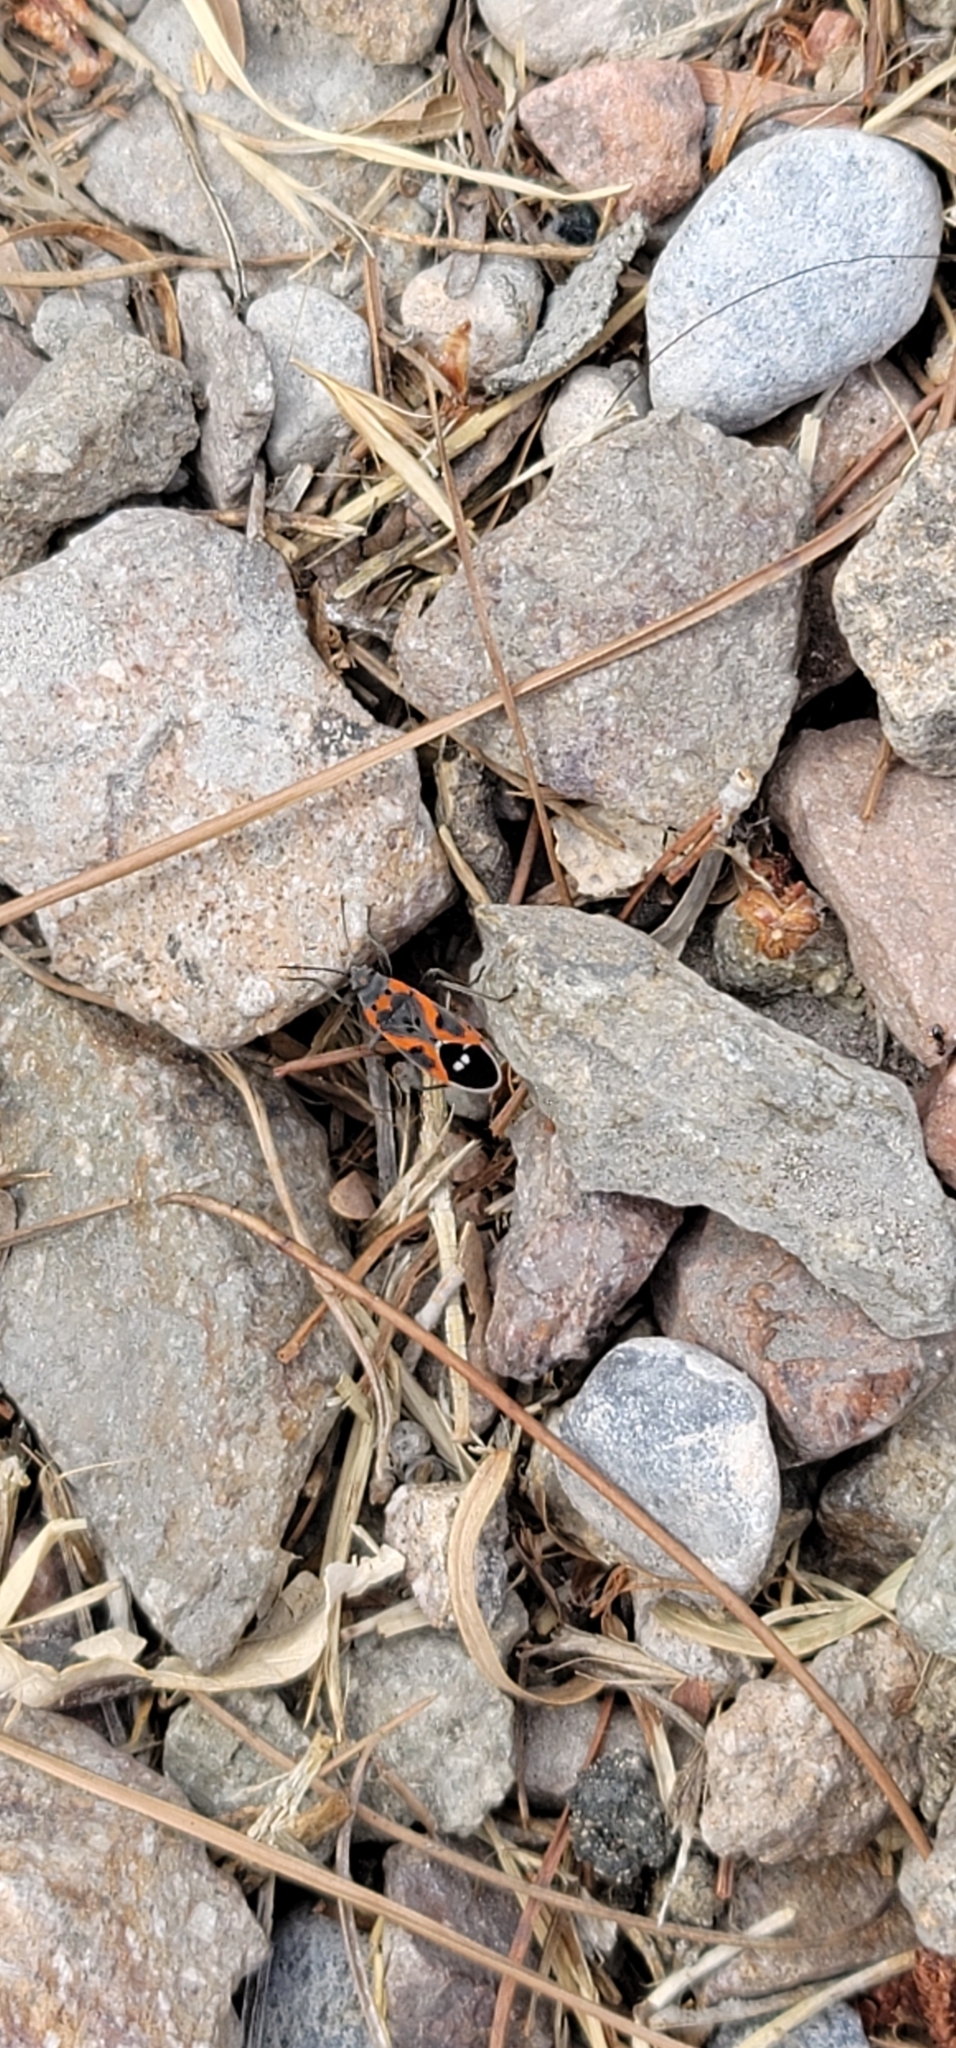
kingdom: Animalia
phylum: Arthropoda
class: Insecta
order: Hemiptera
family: Lygaeidae
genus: Lygaeus
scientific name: Lygaeus kalmii
